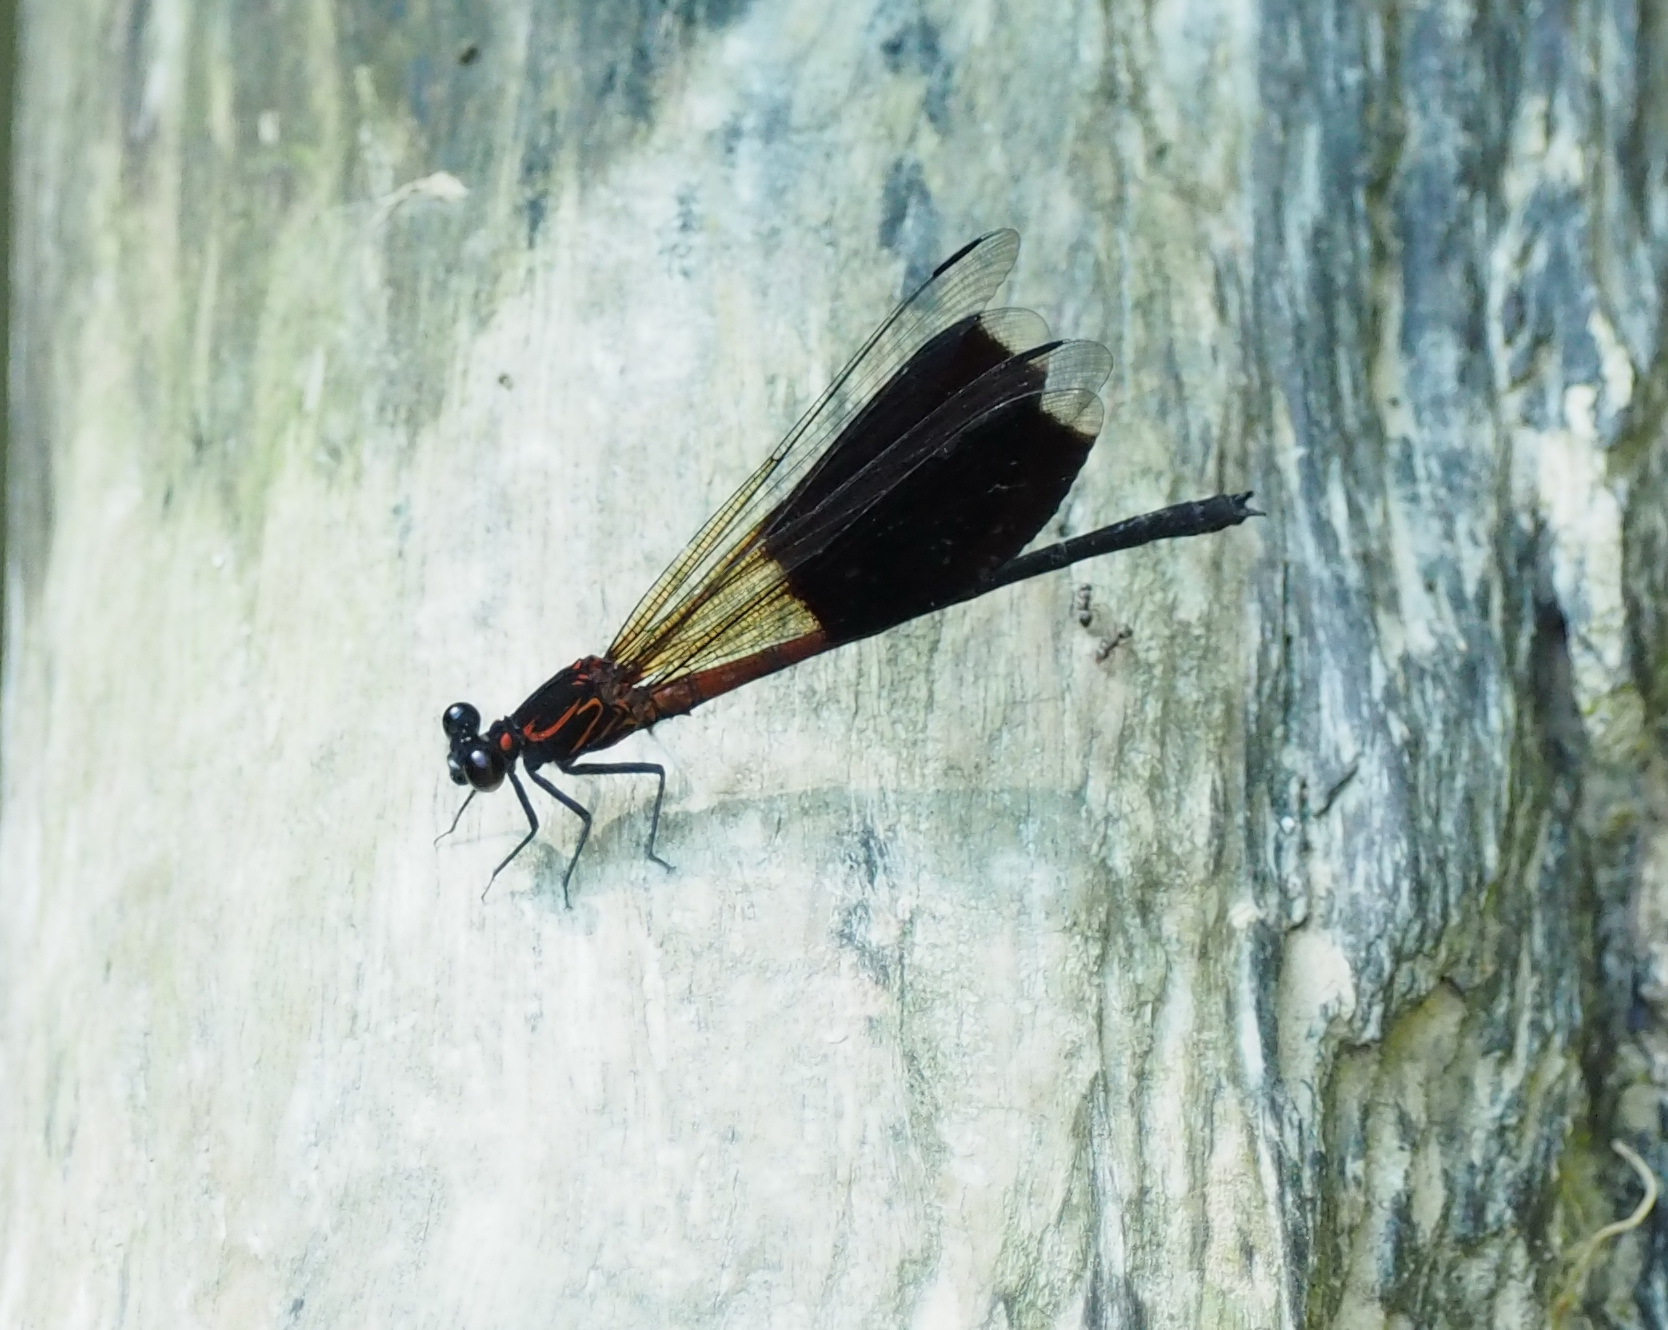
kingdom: Animalia
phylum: Arthropoda
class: Insecta
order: Odonata
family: Euphaeidae
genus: Euphaea
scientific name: Euphaea formosa
